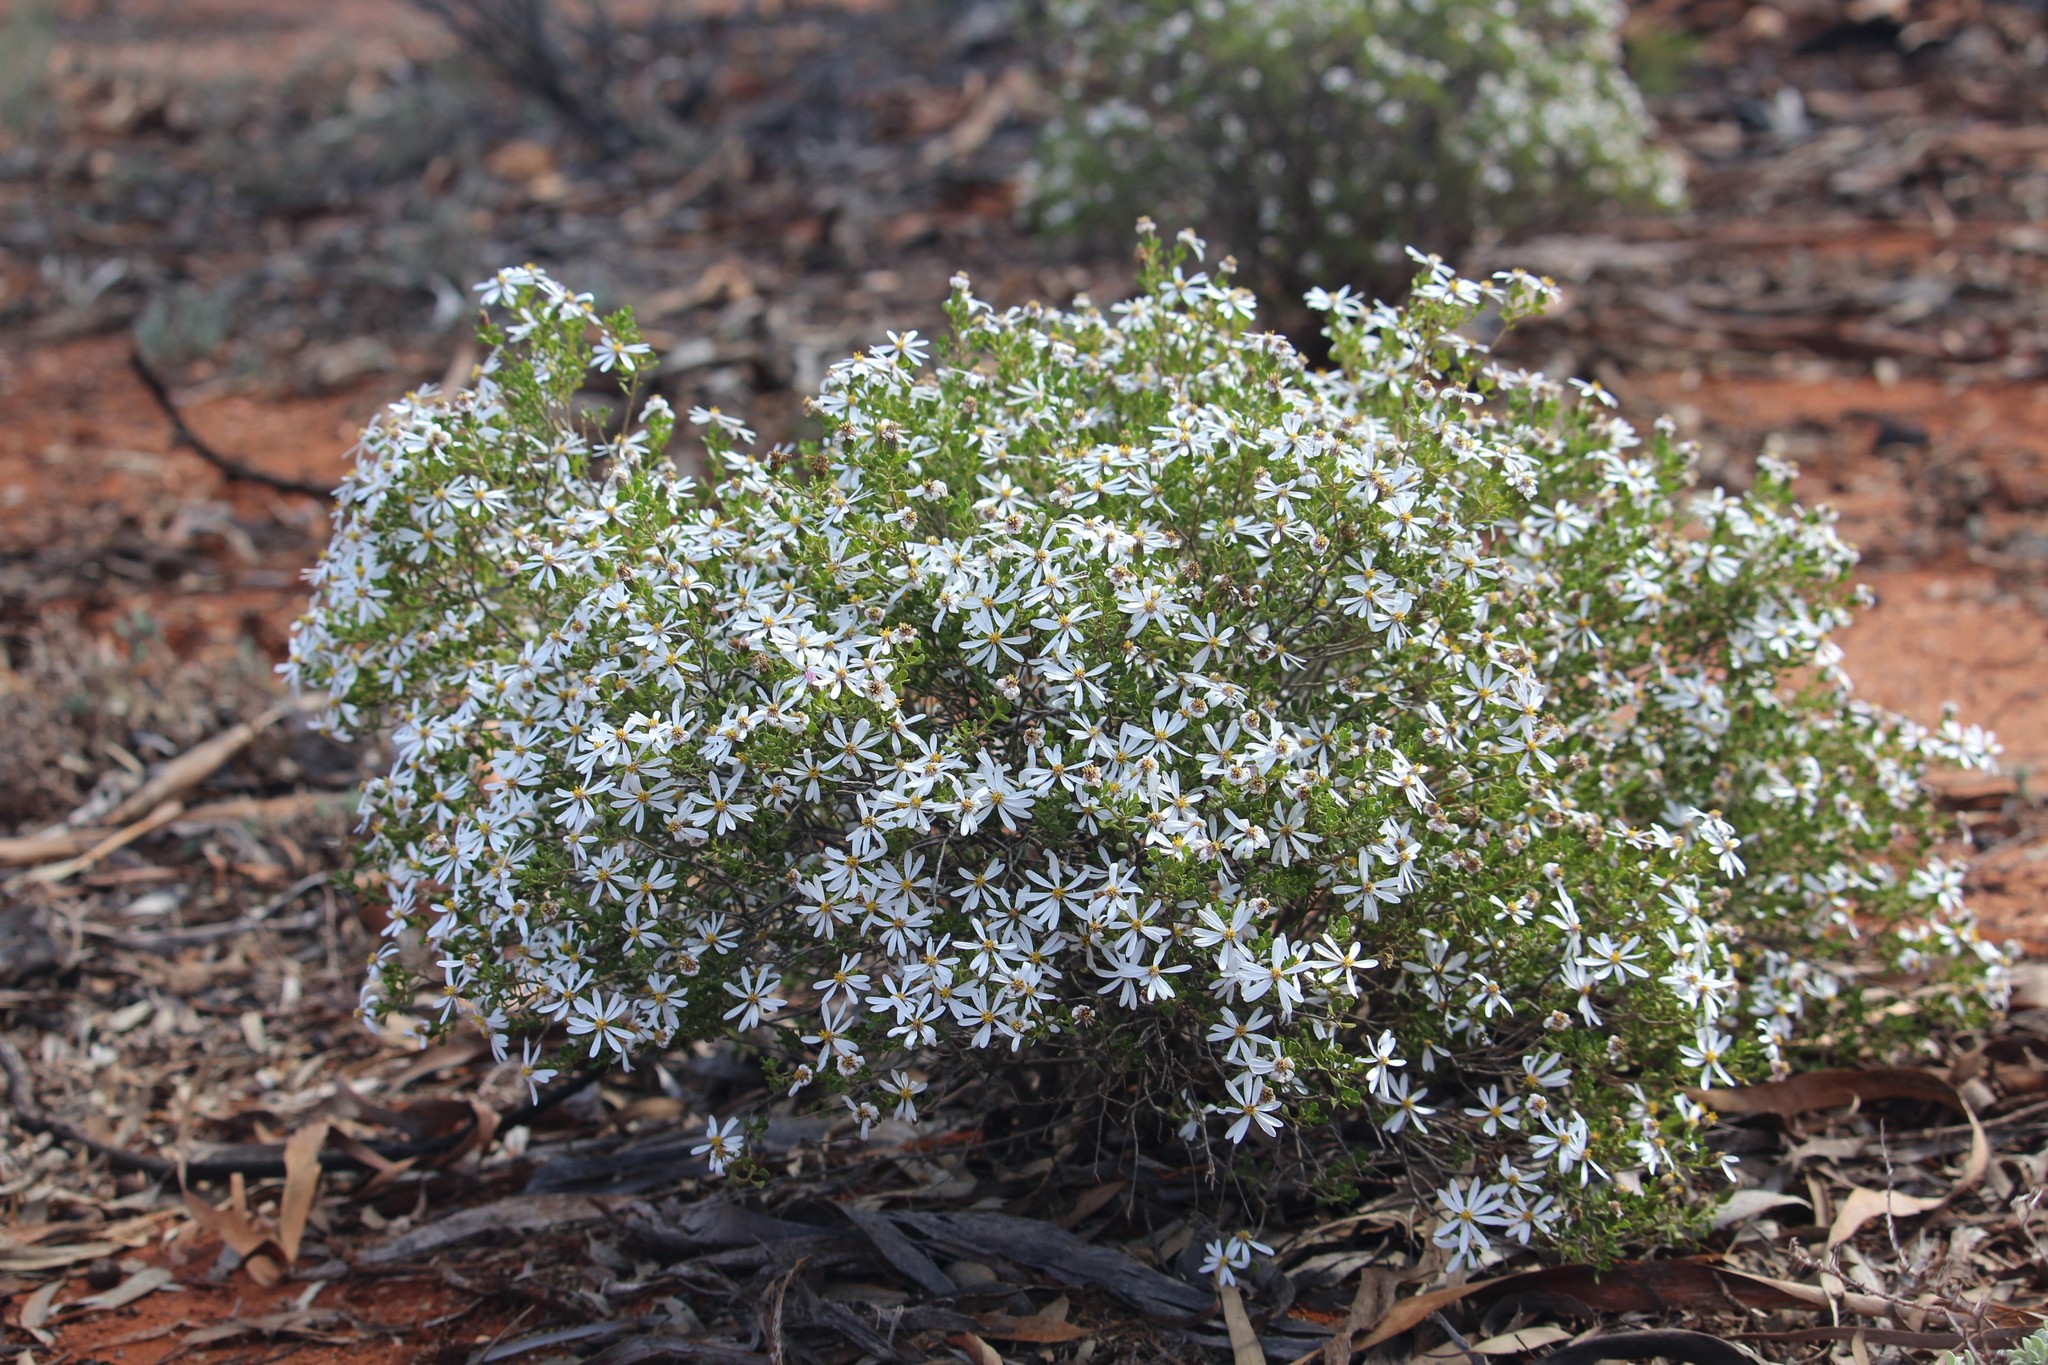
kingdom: Plantae
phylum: Tracheophyta
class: Magnoliopsida
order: Asterales
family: Asteraceae
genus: Walsholaria
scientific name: Walsholaria muelleri
